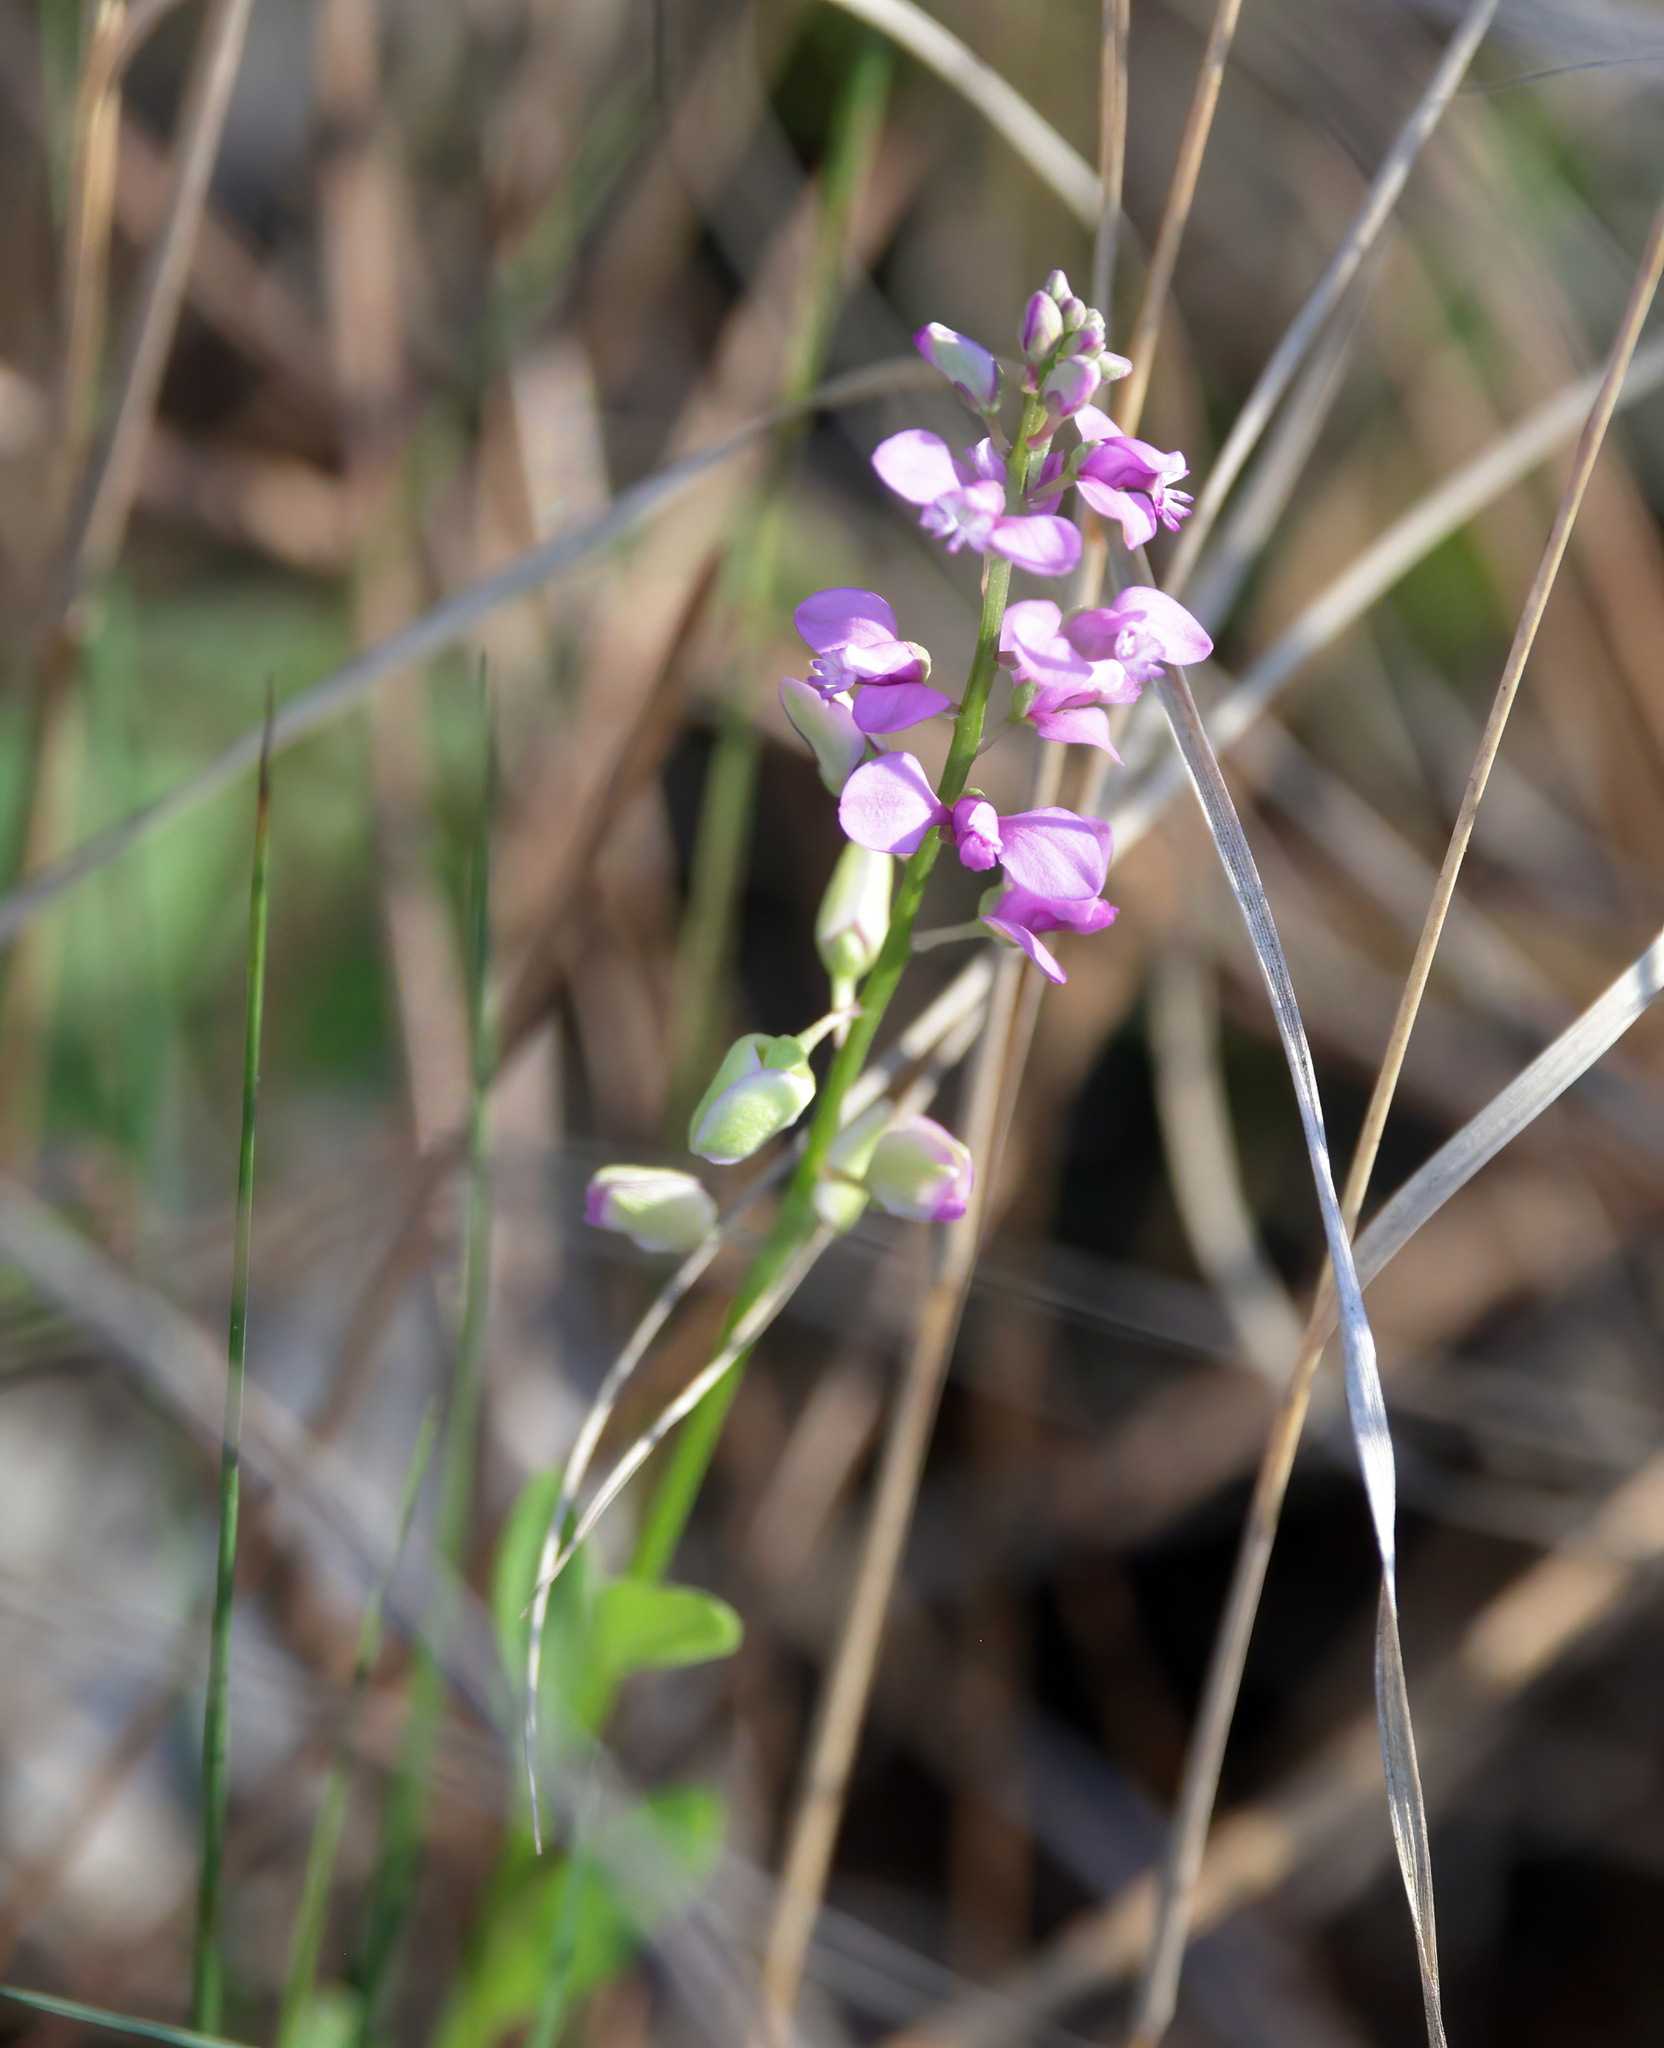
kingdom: Plantae
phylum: Tracheophyta
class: Magnoliopsida
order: Fabales
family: Polygalaceae
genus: Polygala
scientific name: Polygala polygama
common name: Bitter milkwort
